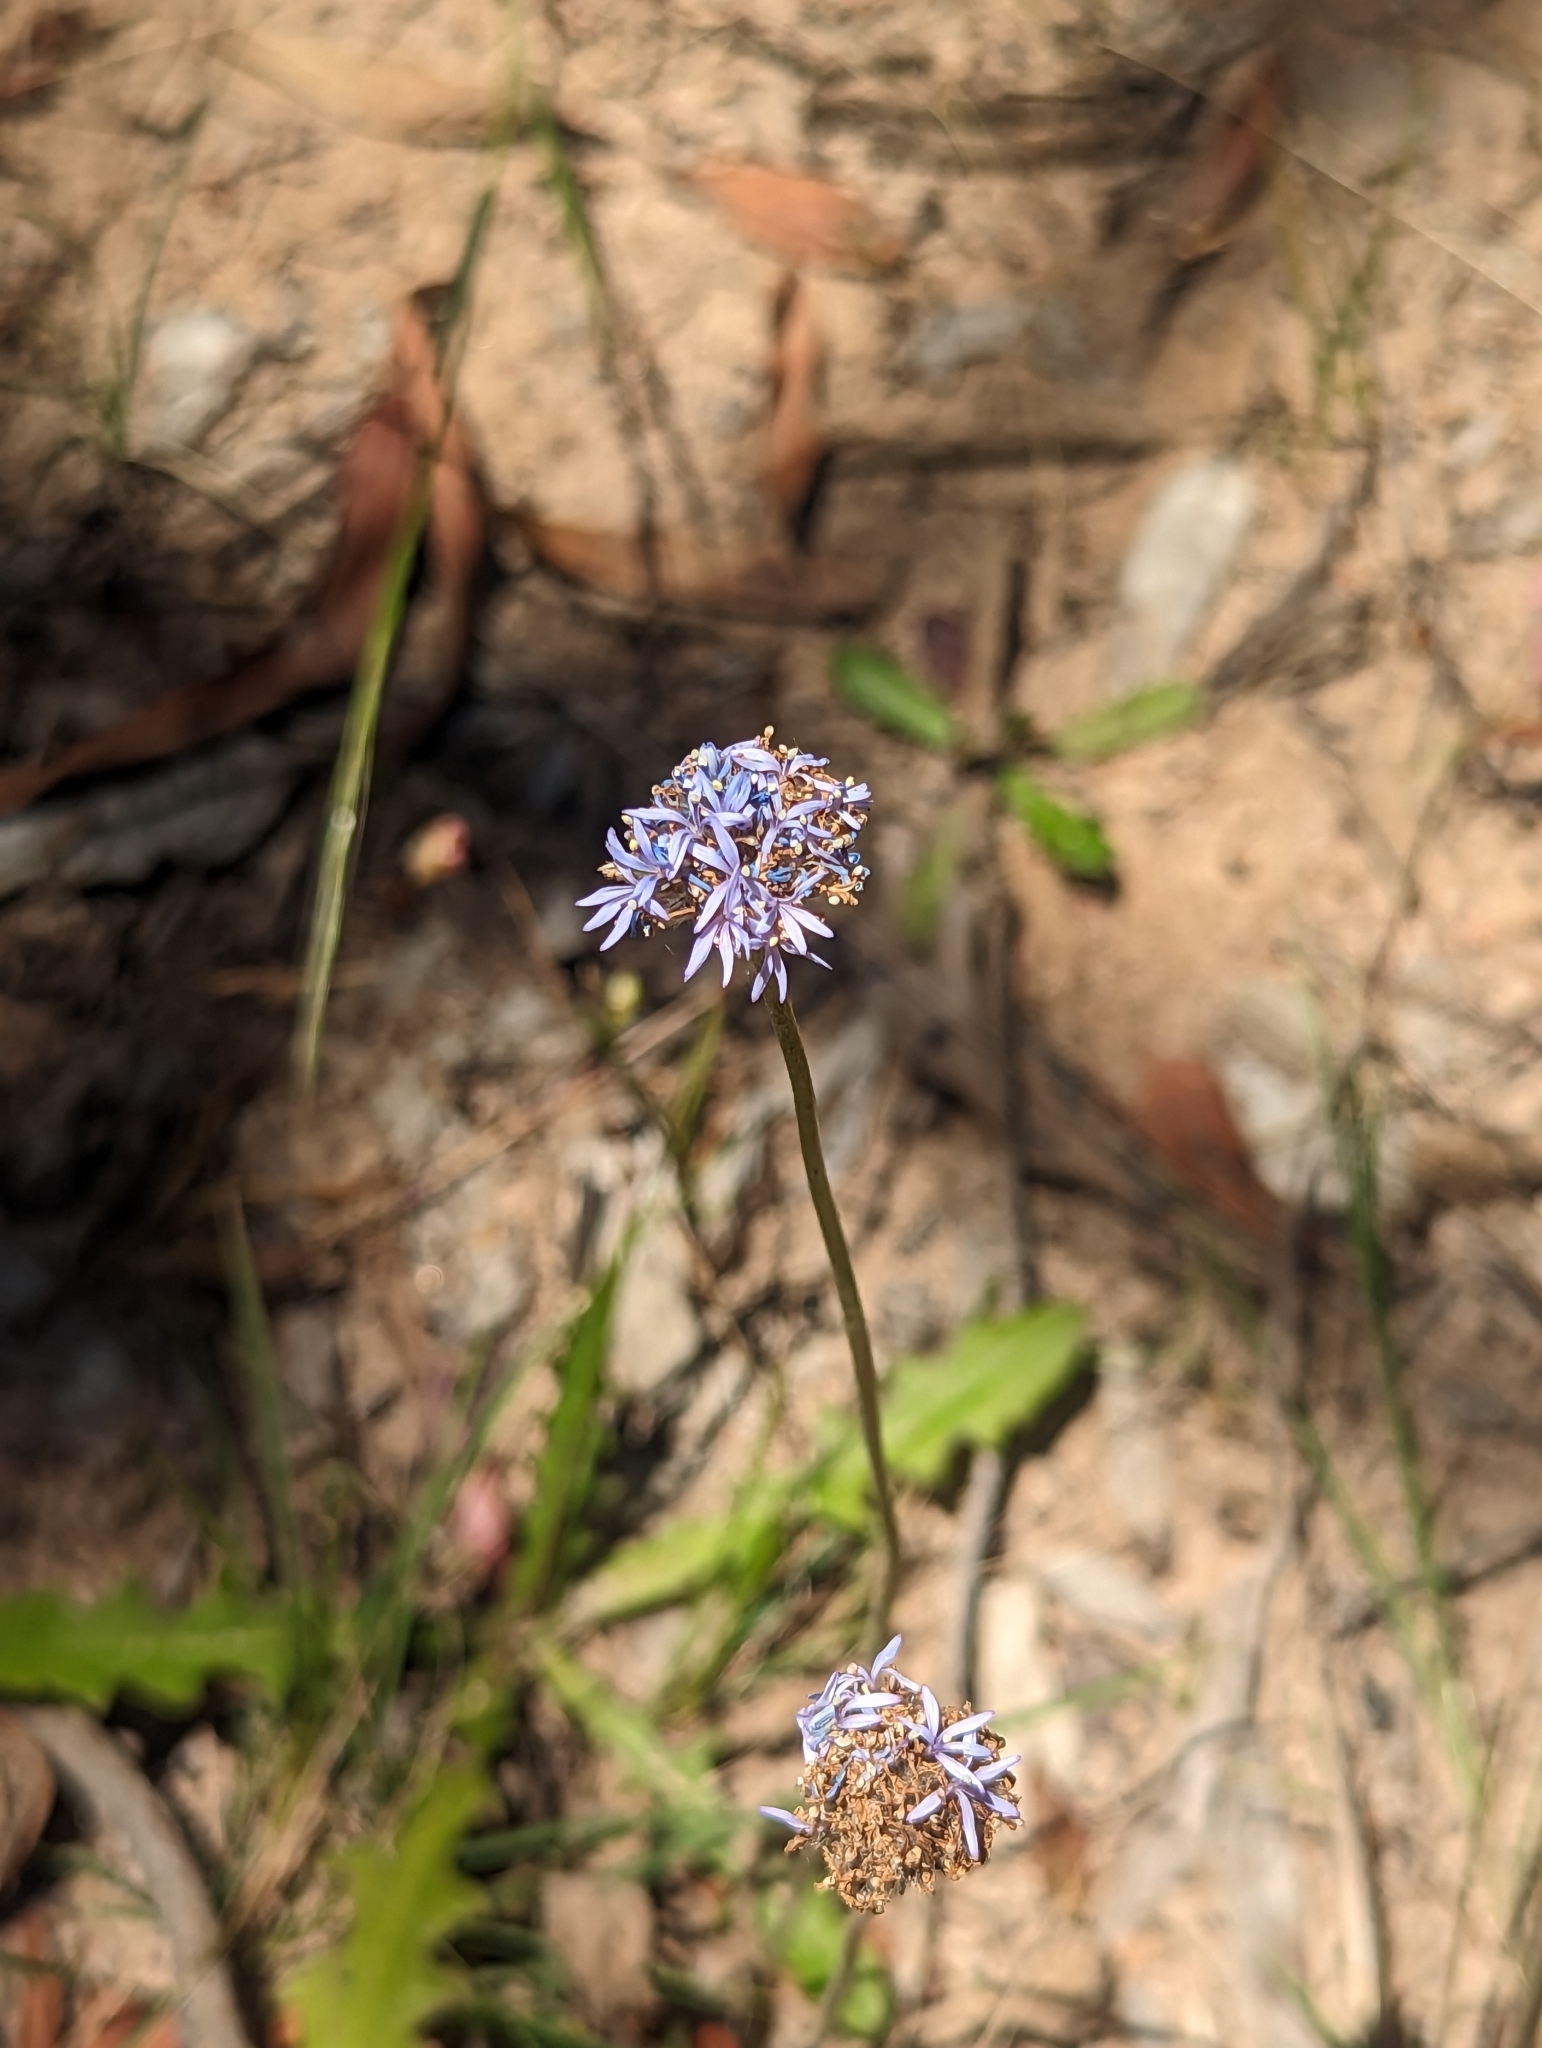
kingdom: Plantae
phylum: Tracheophyta
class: Magnoliopsida
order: Asterales
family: Goodeniaceae
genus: Brunonia
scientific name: Brunonia australis
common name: Blue pincushion
